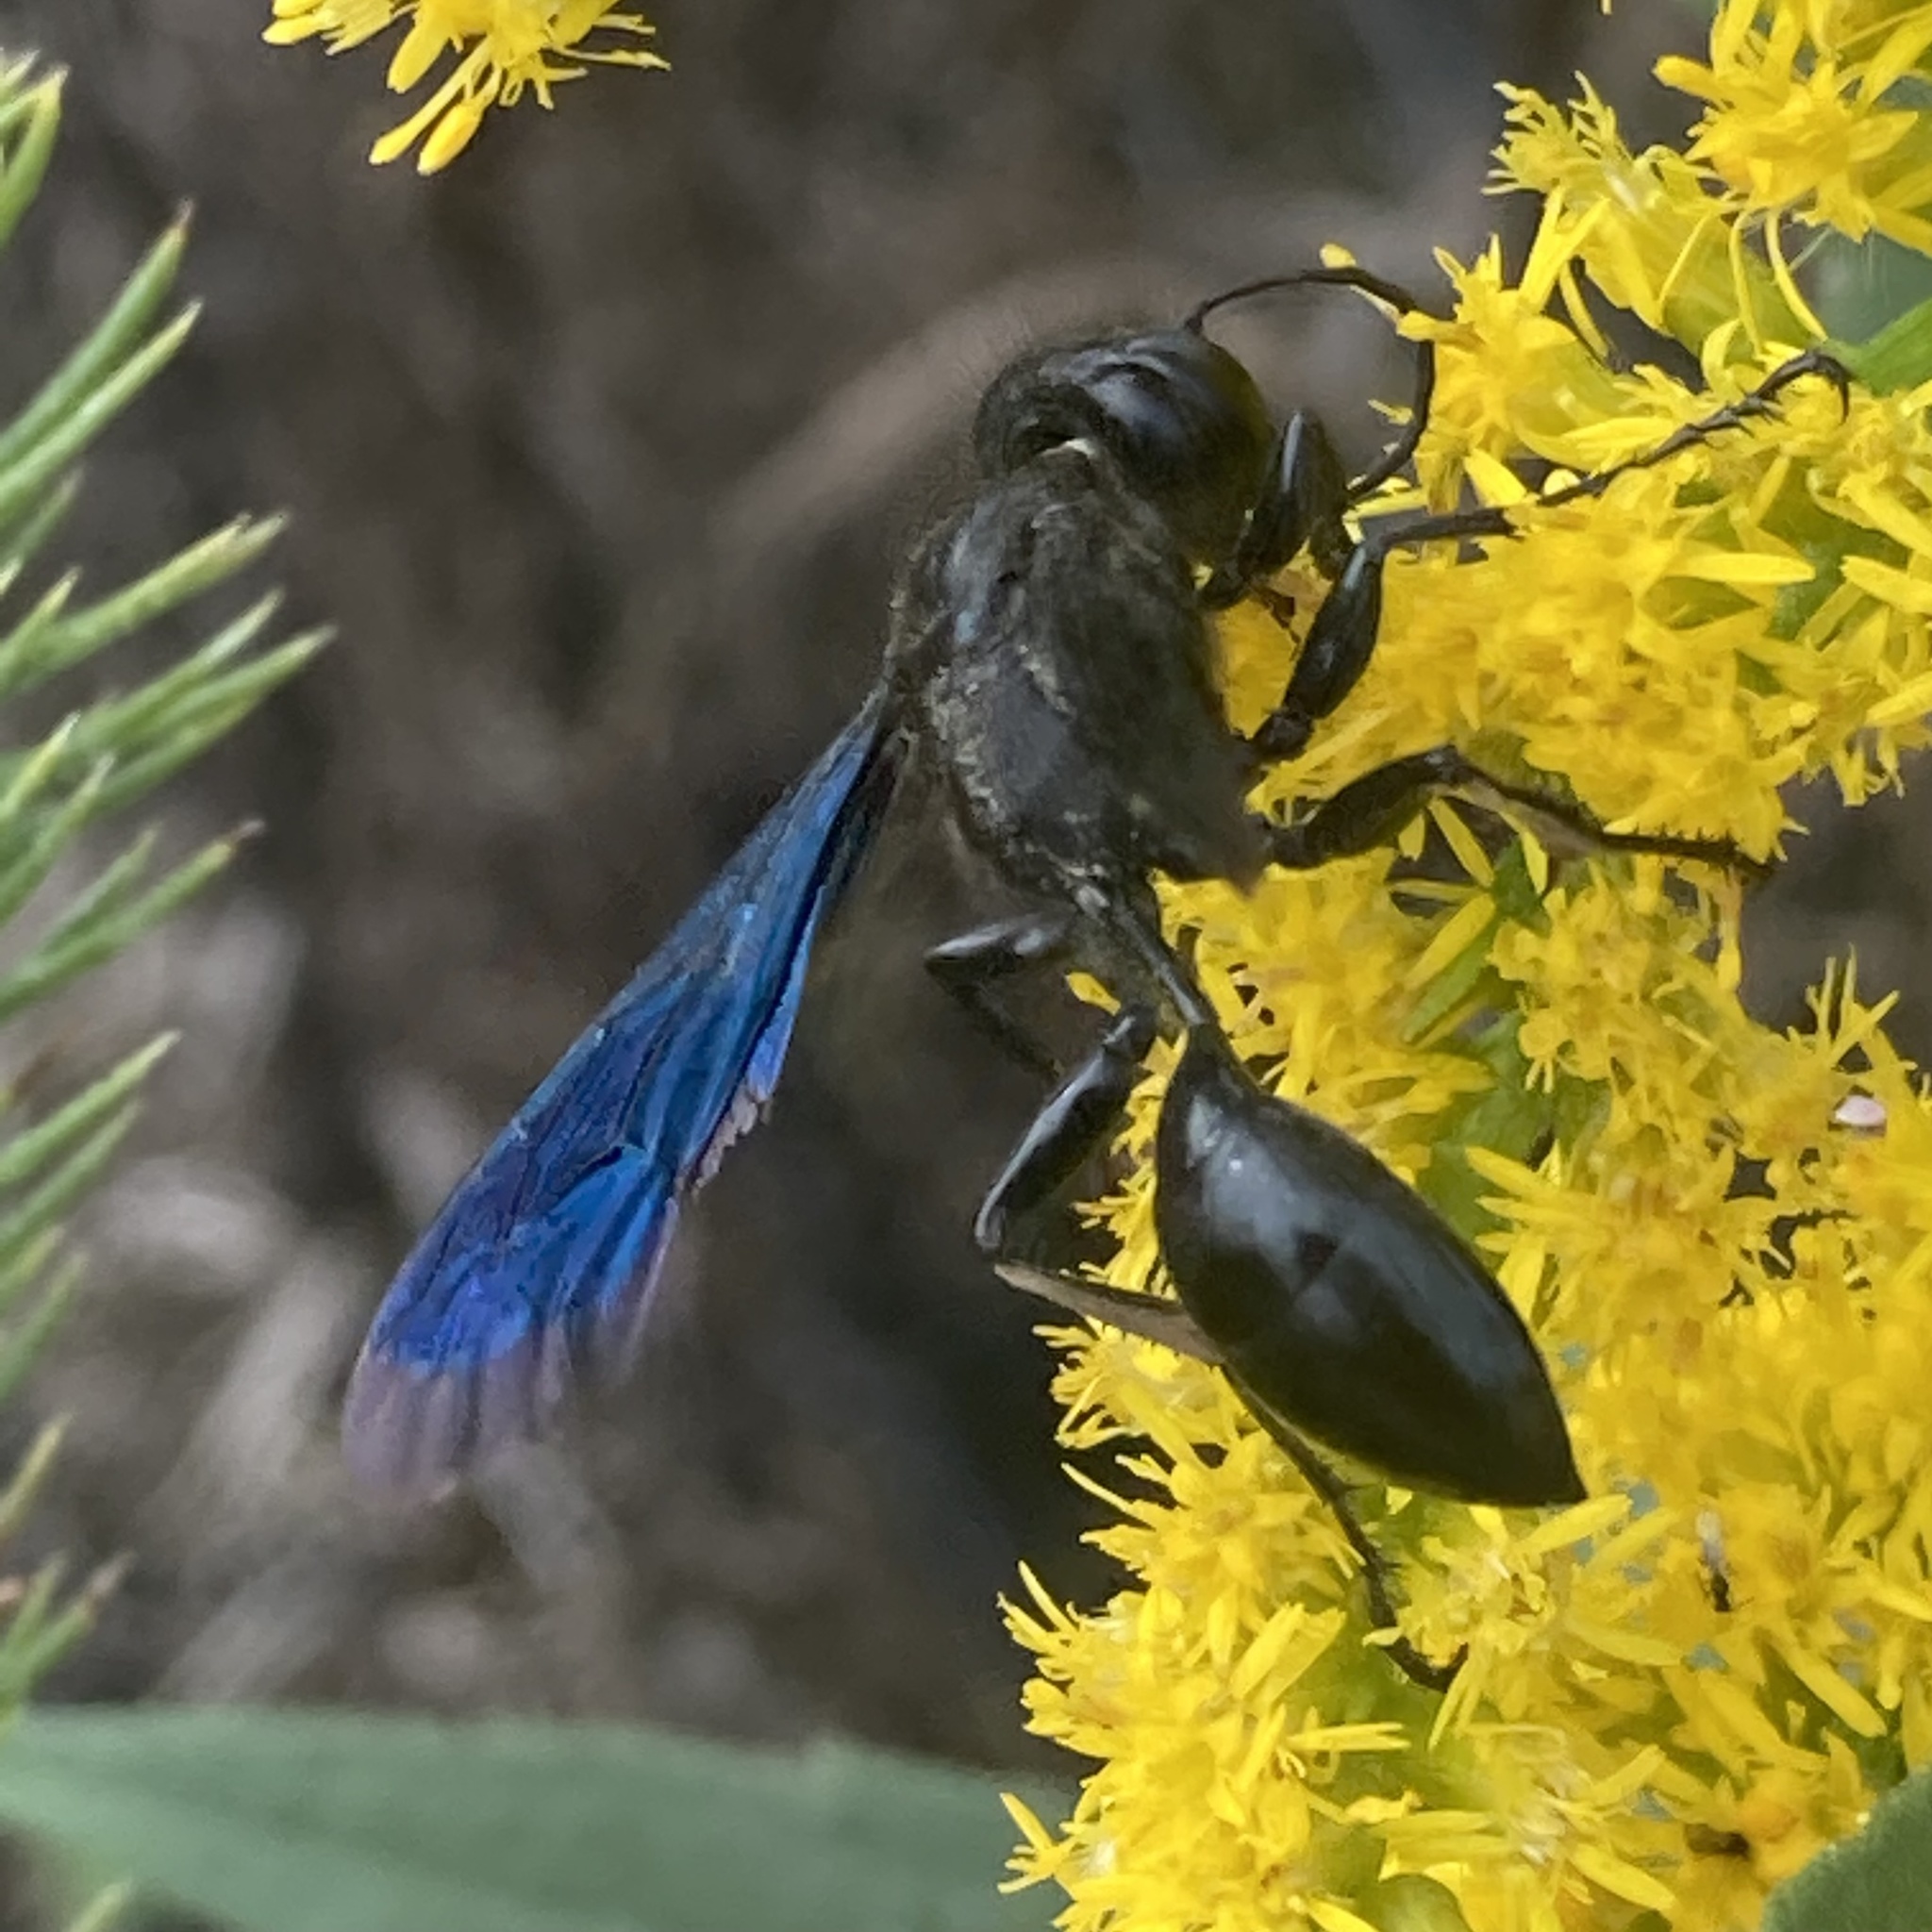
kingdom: Animalia
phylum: Arthropoda
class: Insecta
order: Hymenoptera
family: Sphecidae
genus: Isodontia
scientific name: Isodontia philadelphica
